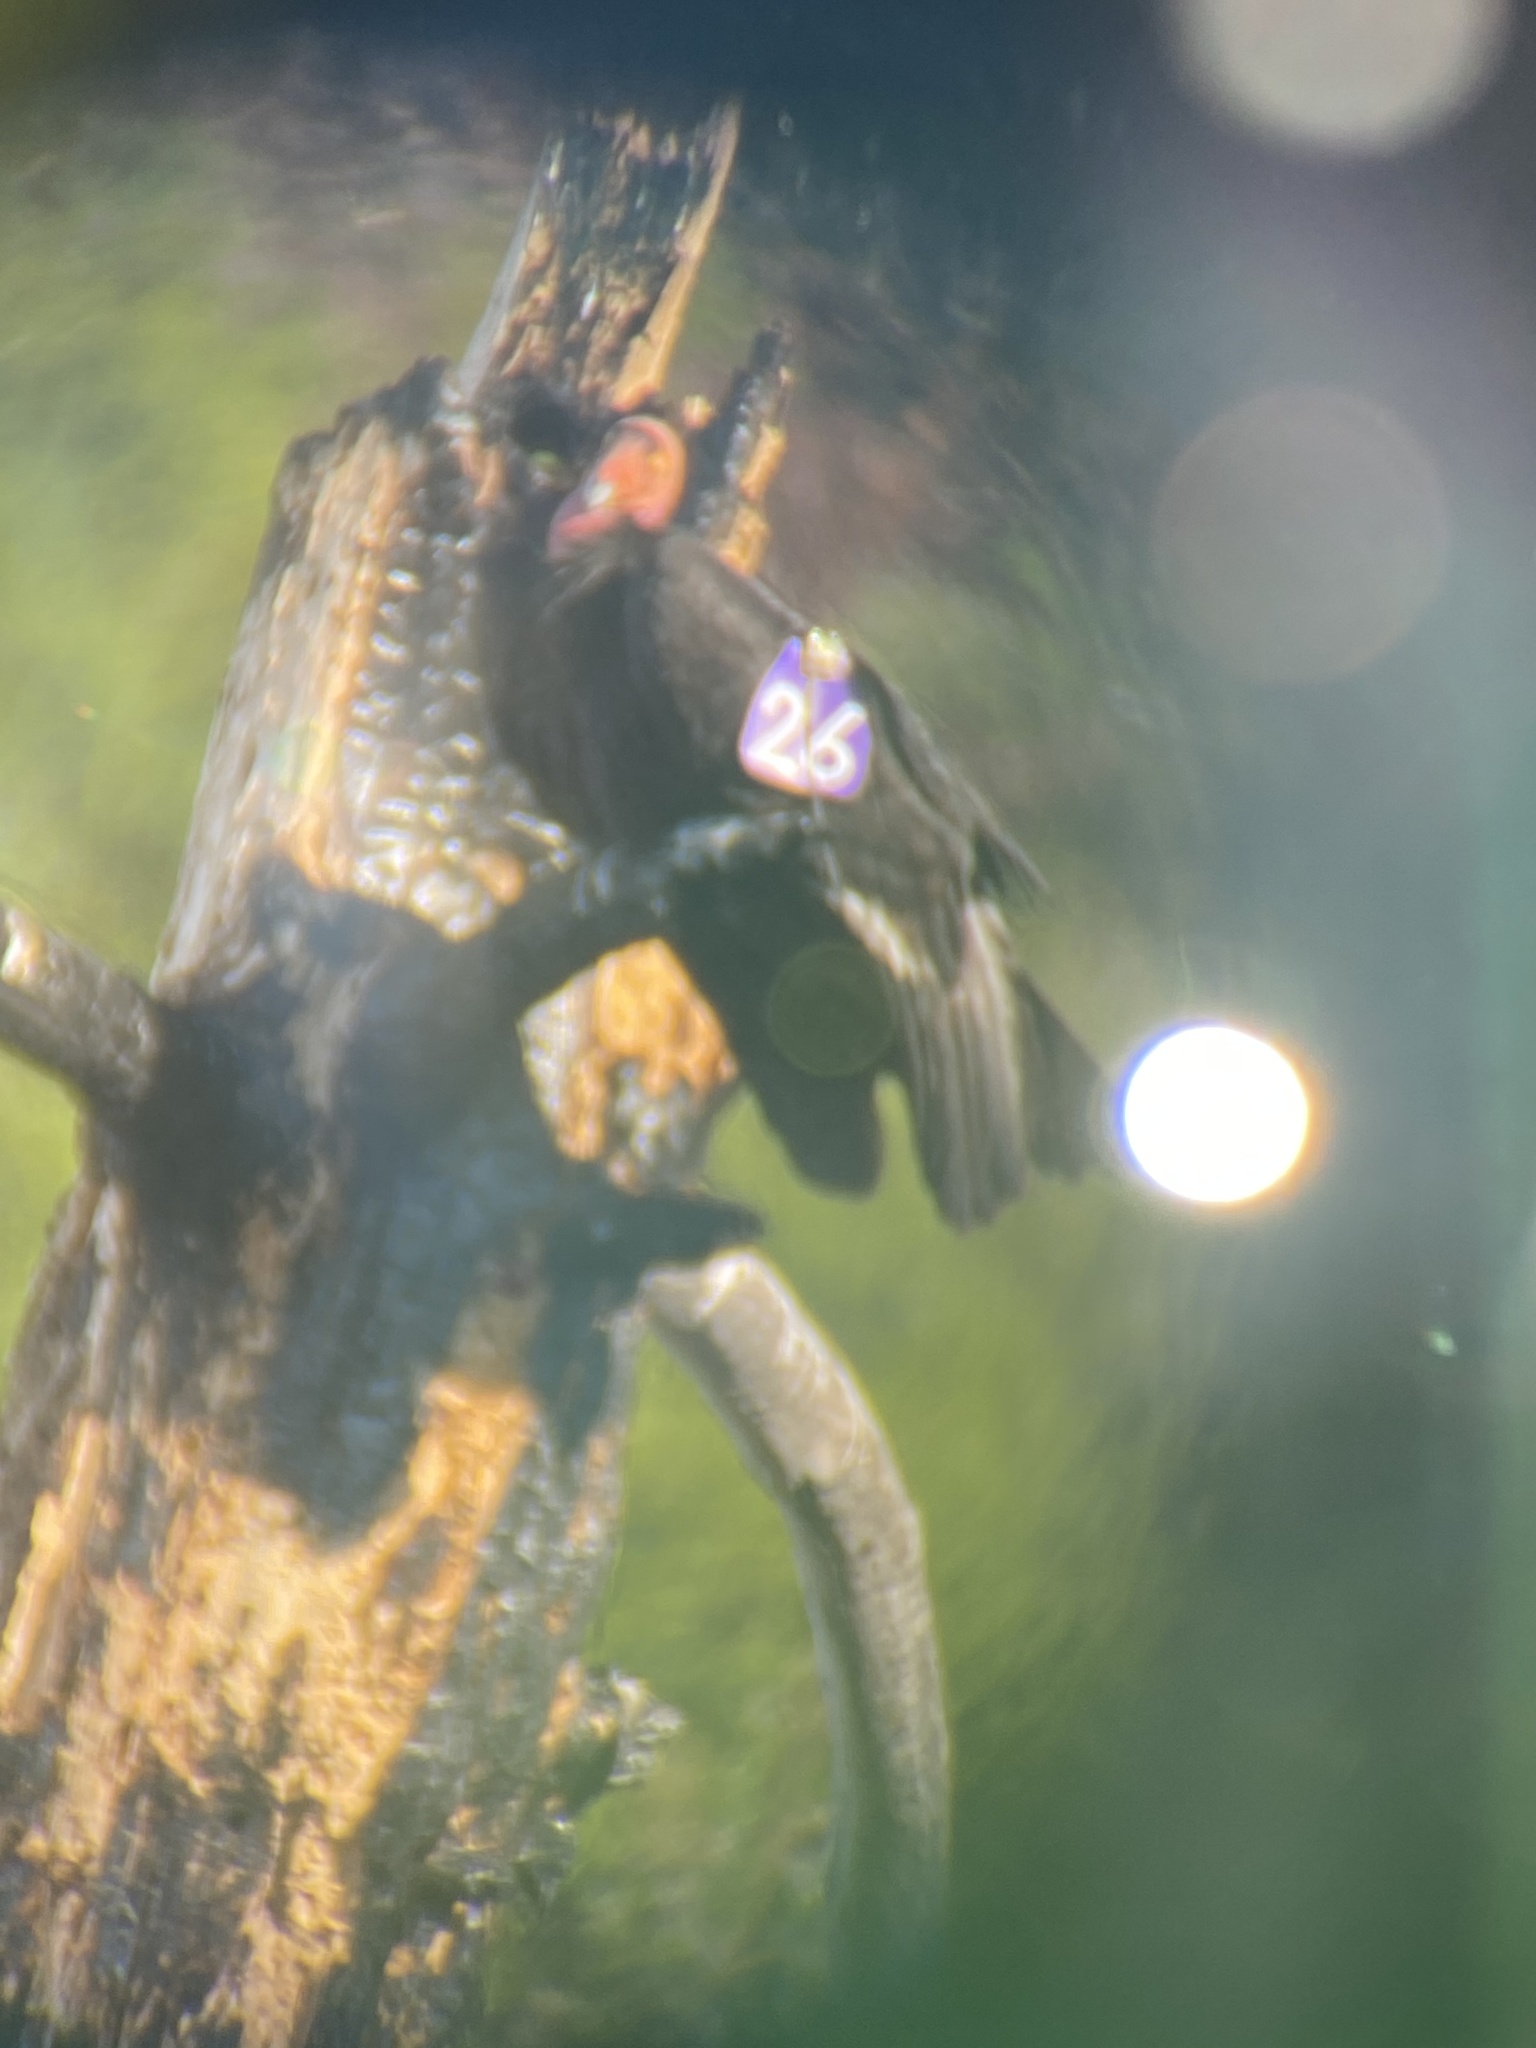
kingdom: Animalia
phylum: Chordata
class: Aves
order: Accipitriformes
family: Cathartidae
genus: Gymnogyps
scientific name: Gymnogyps californianus
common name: California condor
